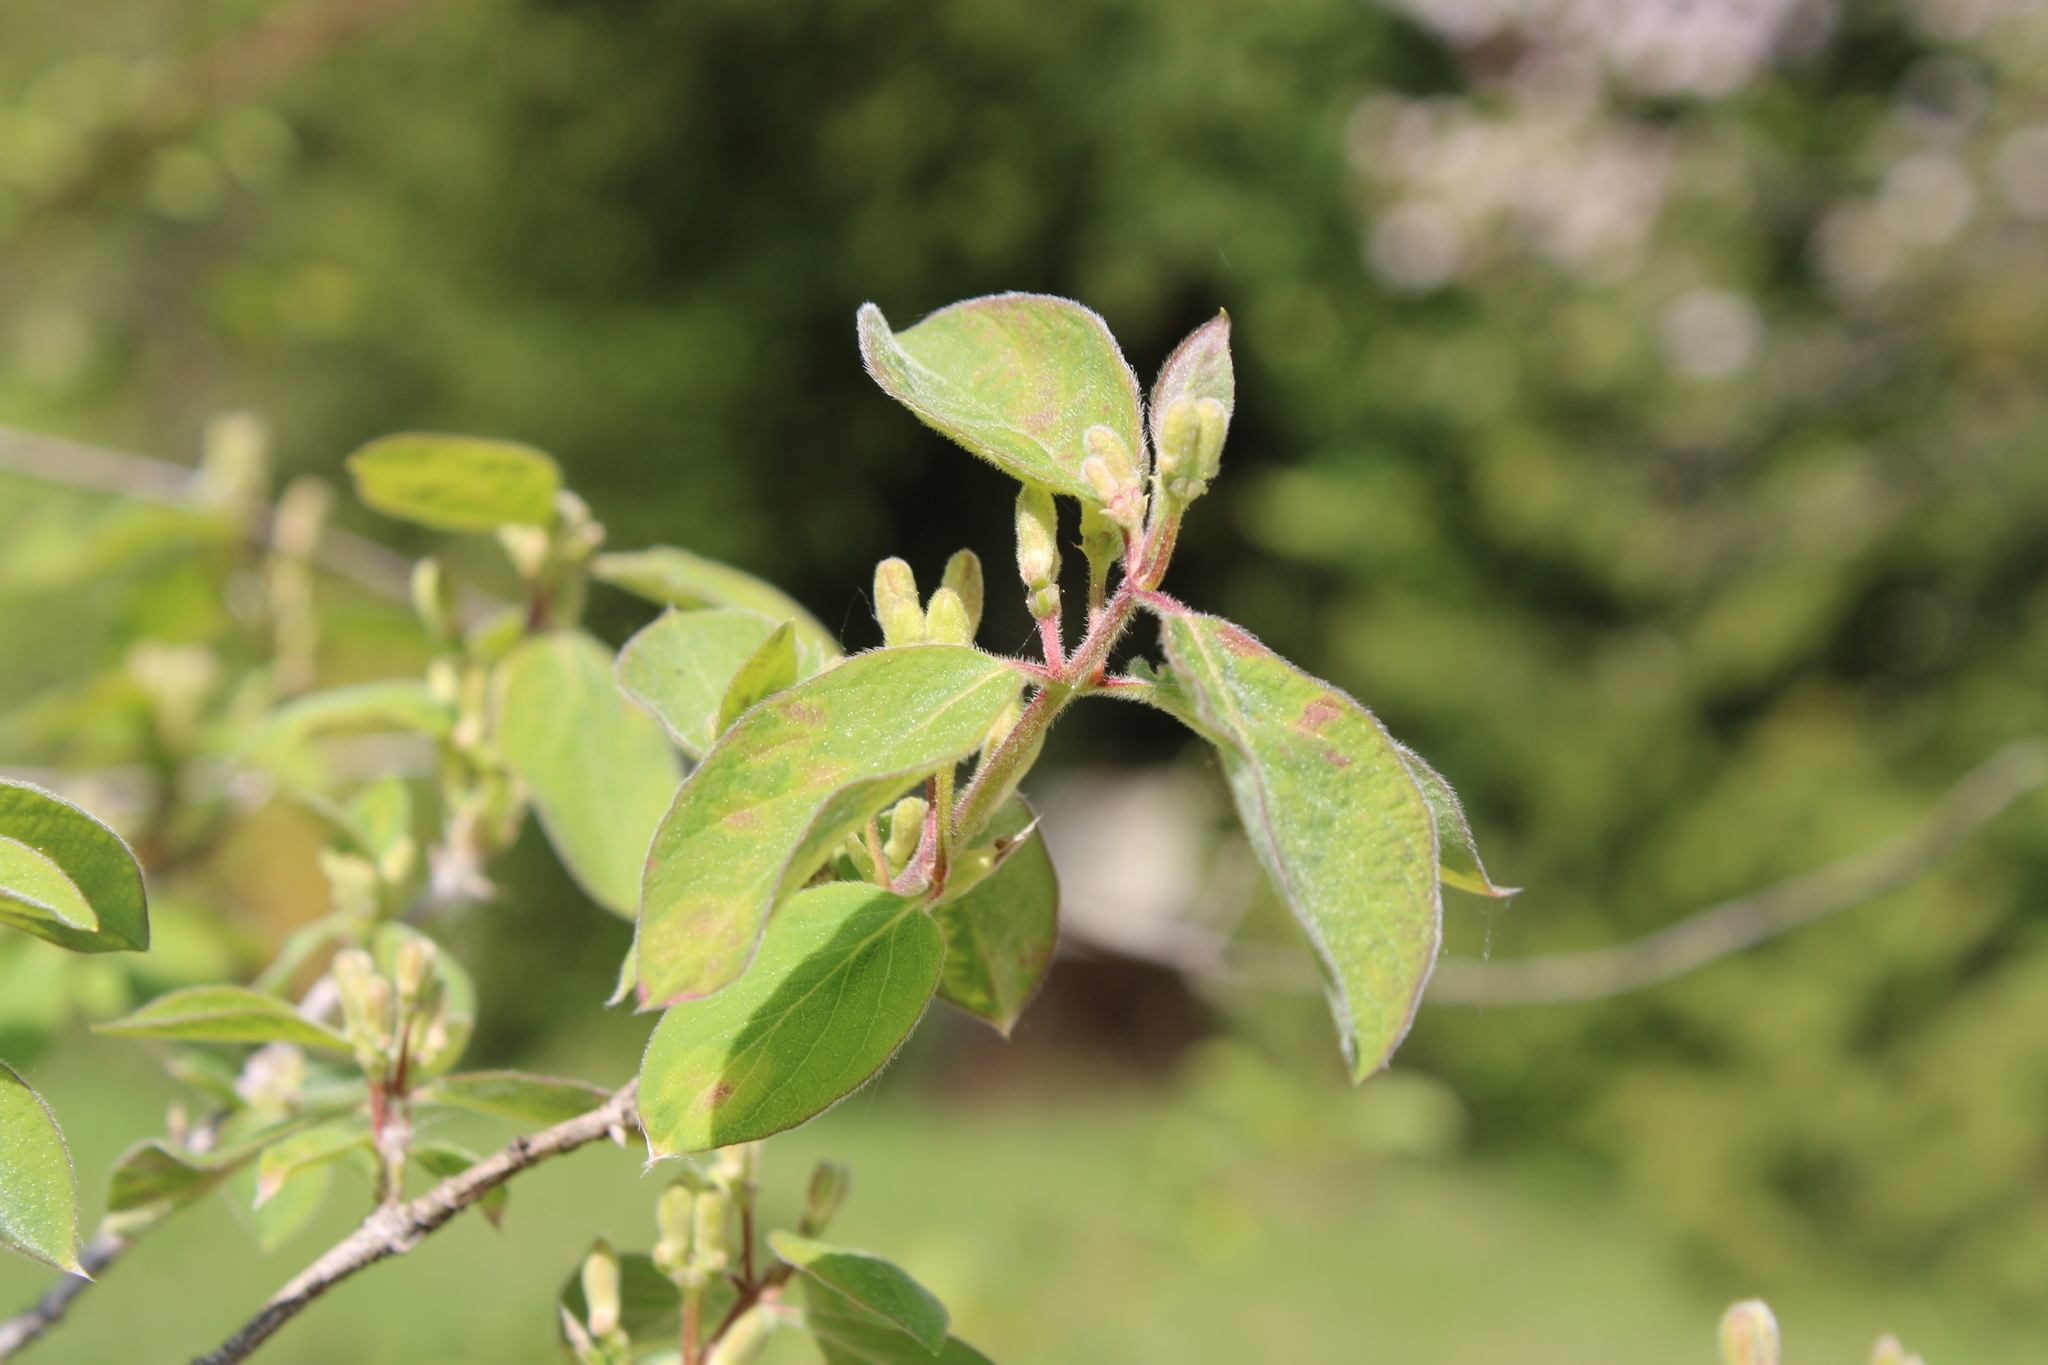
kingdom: Plantae
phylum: Tracheophyta
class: Magnoliopsida
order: Dipsacales
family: Caprifoliaceae
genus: Lonicera
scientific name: Lonicera xylosteum
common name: Fly honeysuckle
